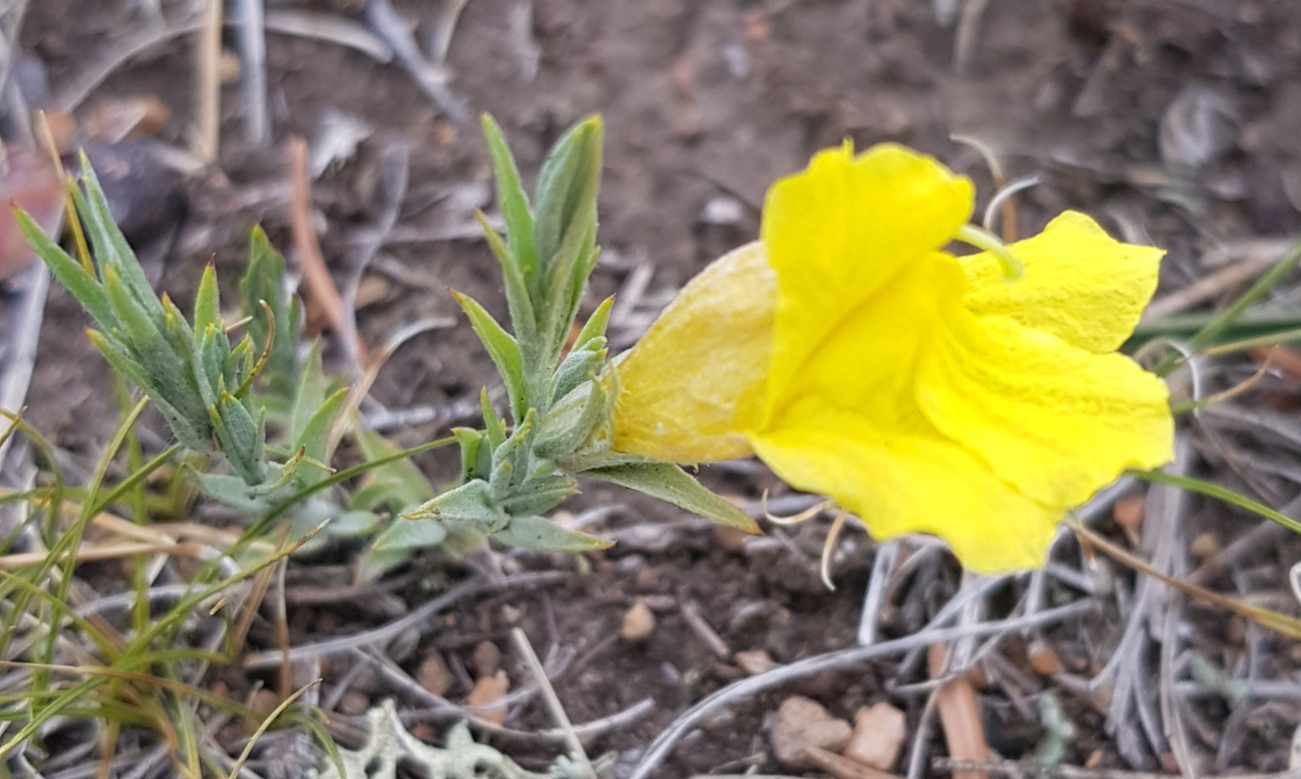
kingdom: Plantae
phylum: Tracheophyta
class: Magnoliopsida
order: Lamiales
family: Orobanchaceae
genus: Cymbaria
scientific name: Cymbaria daurica
